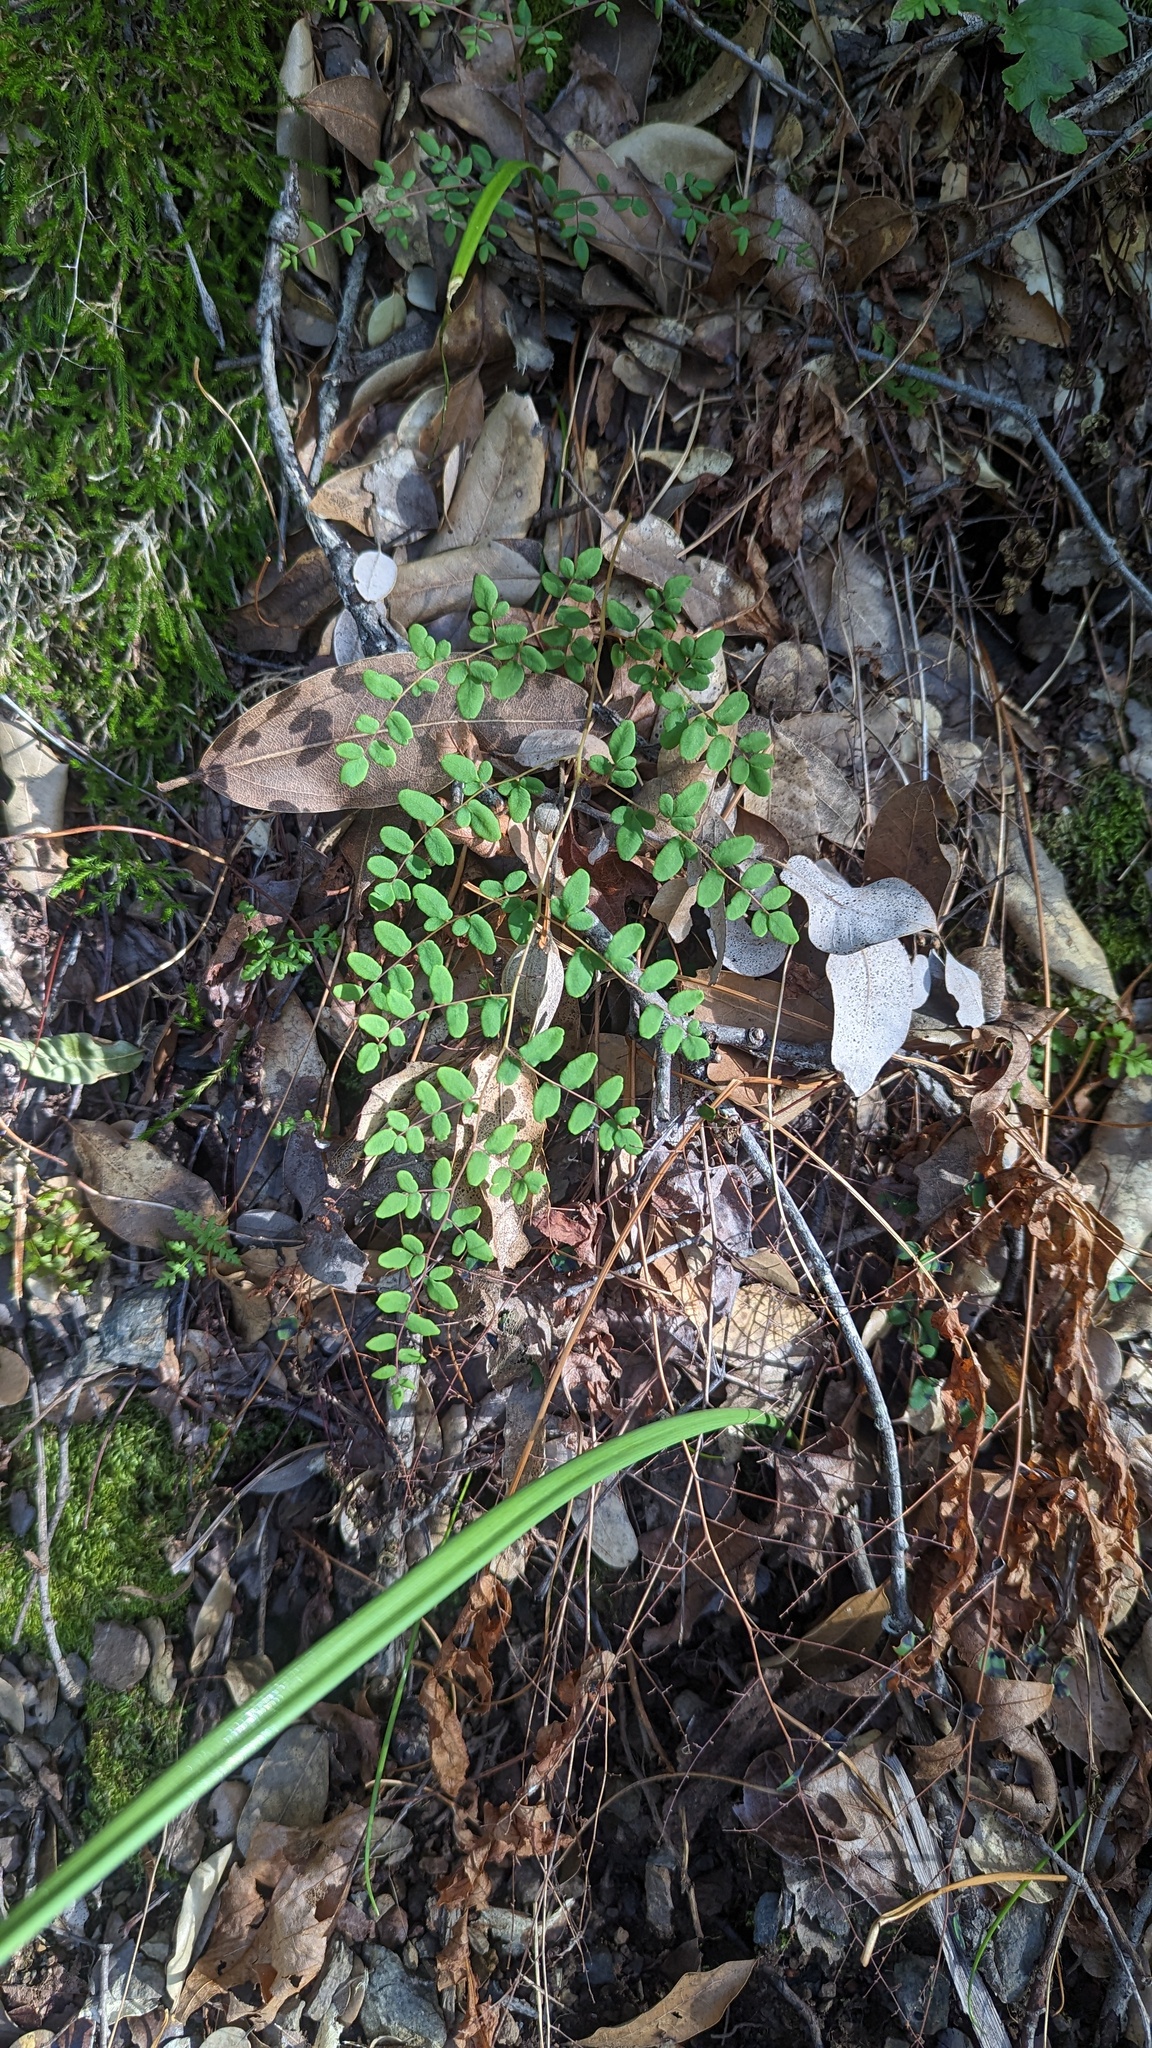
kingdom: Plantae
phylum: Tracheophyta
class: Polypodiopsida
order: Polypodiales
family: Pteridaceae
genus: Pellaea
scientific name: Pellaea andromedifolia
